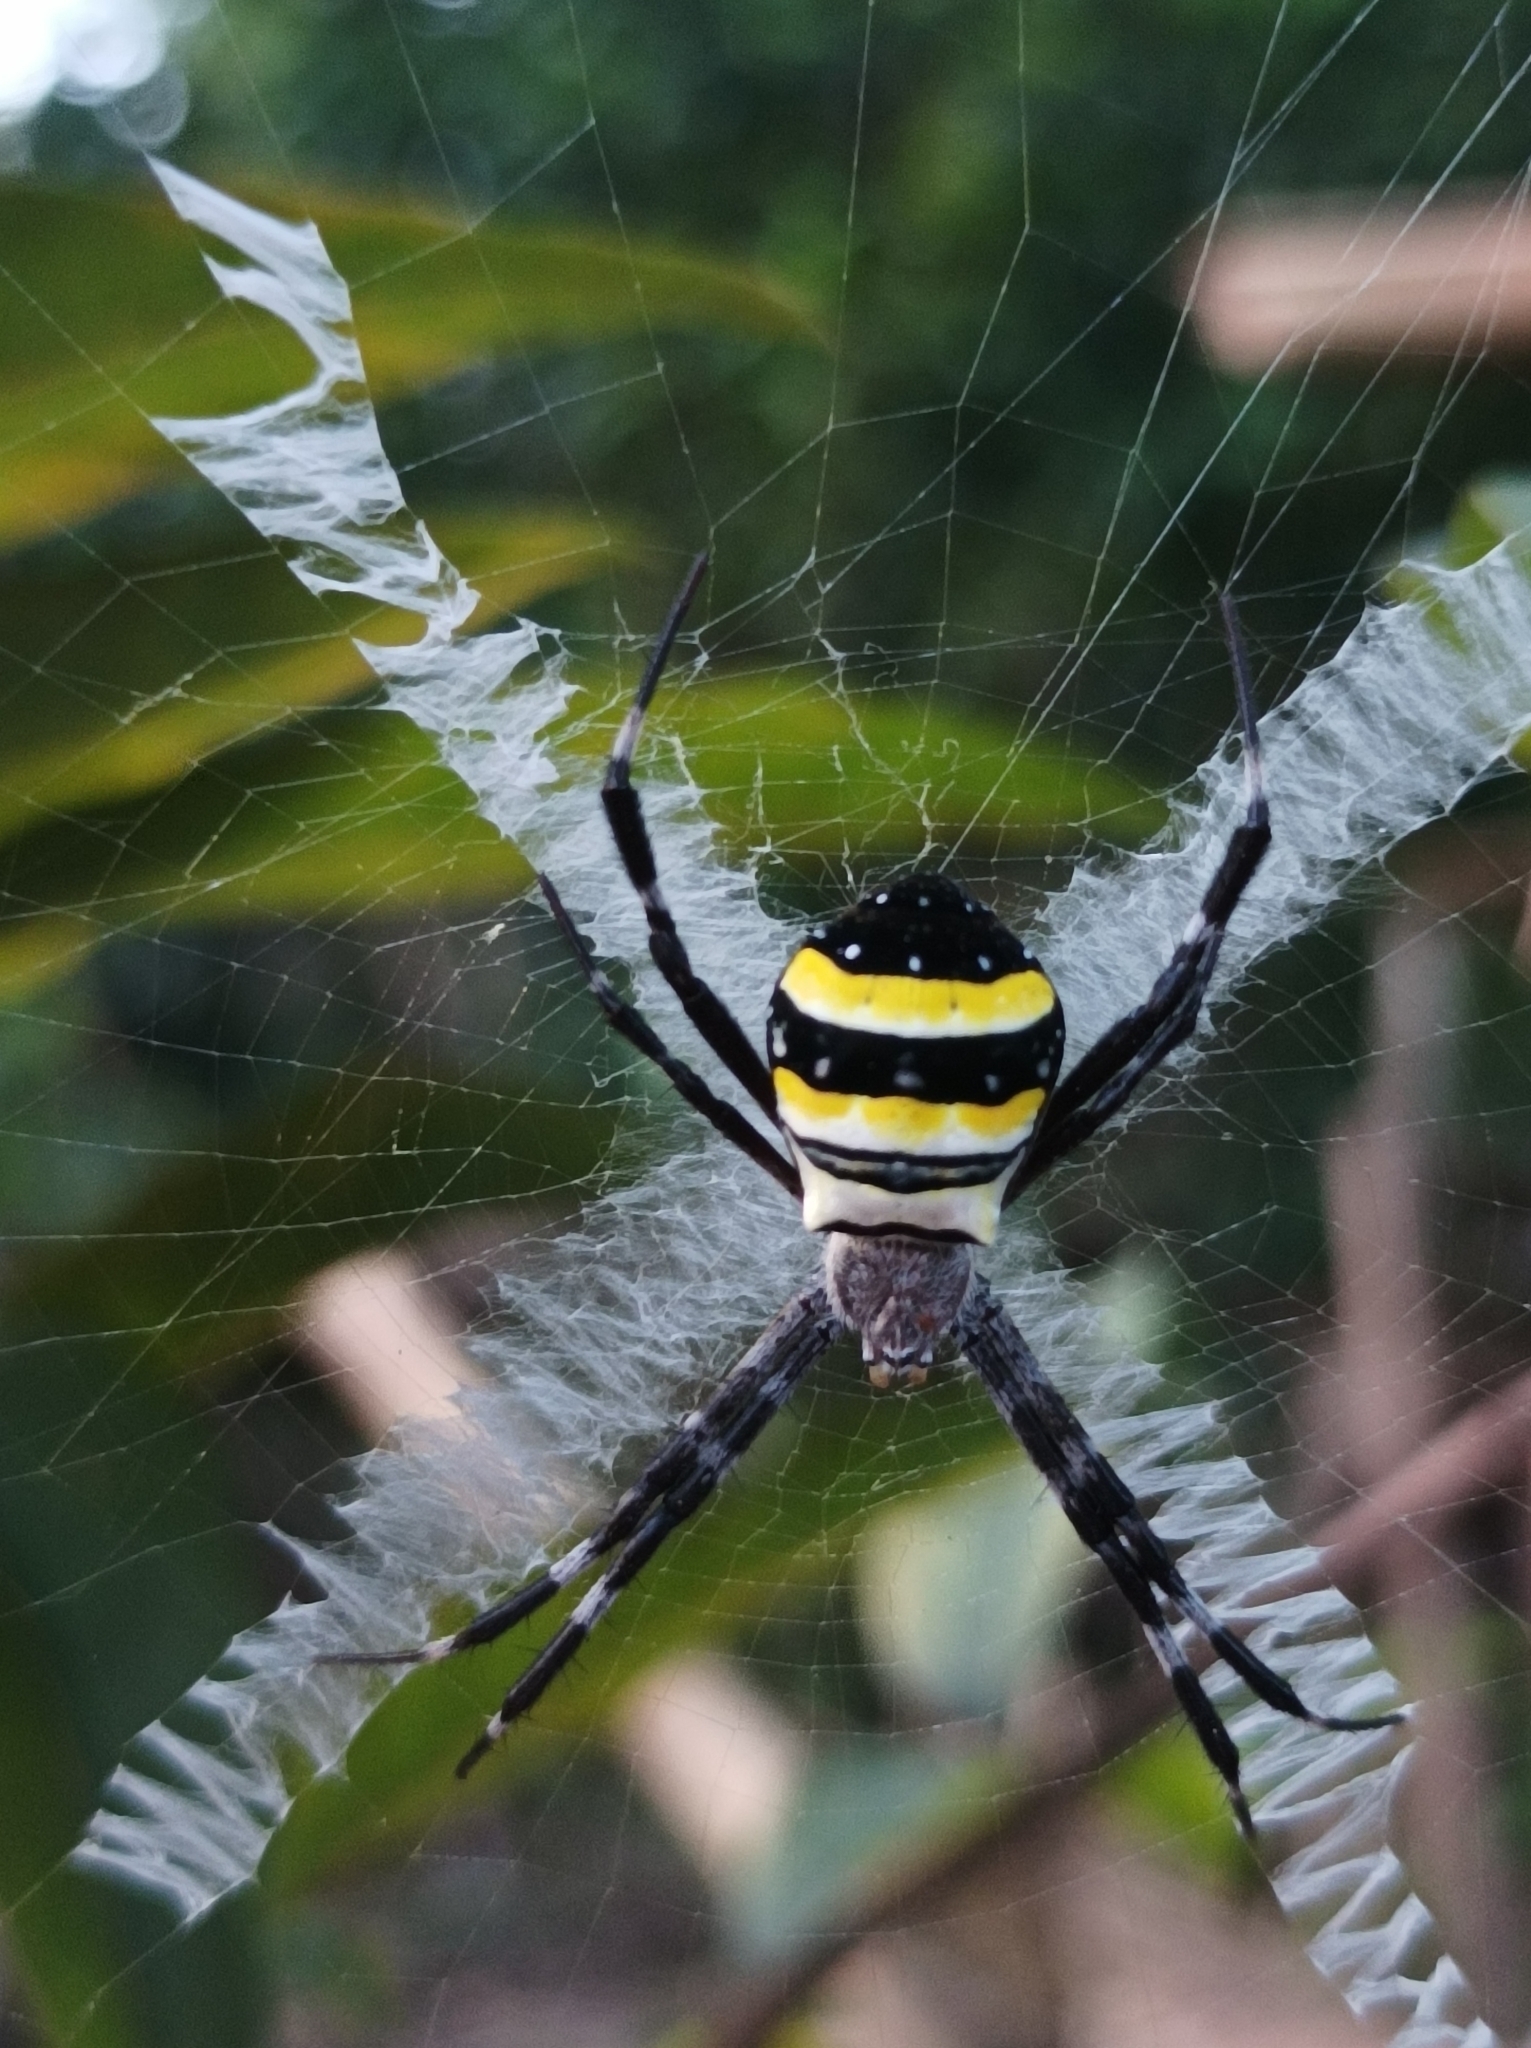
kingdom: Animalia
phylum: Arthropoda
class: Arachnida
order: Araneae
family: Araneidae
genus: Argiope
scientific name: Argiope caledonia
